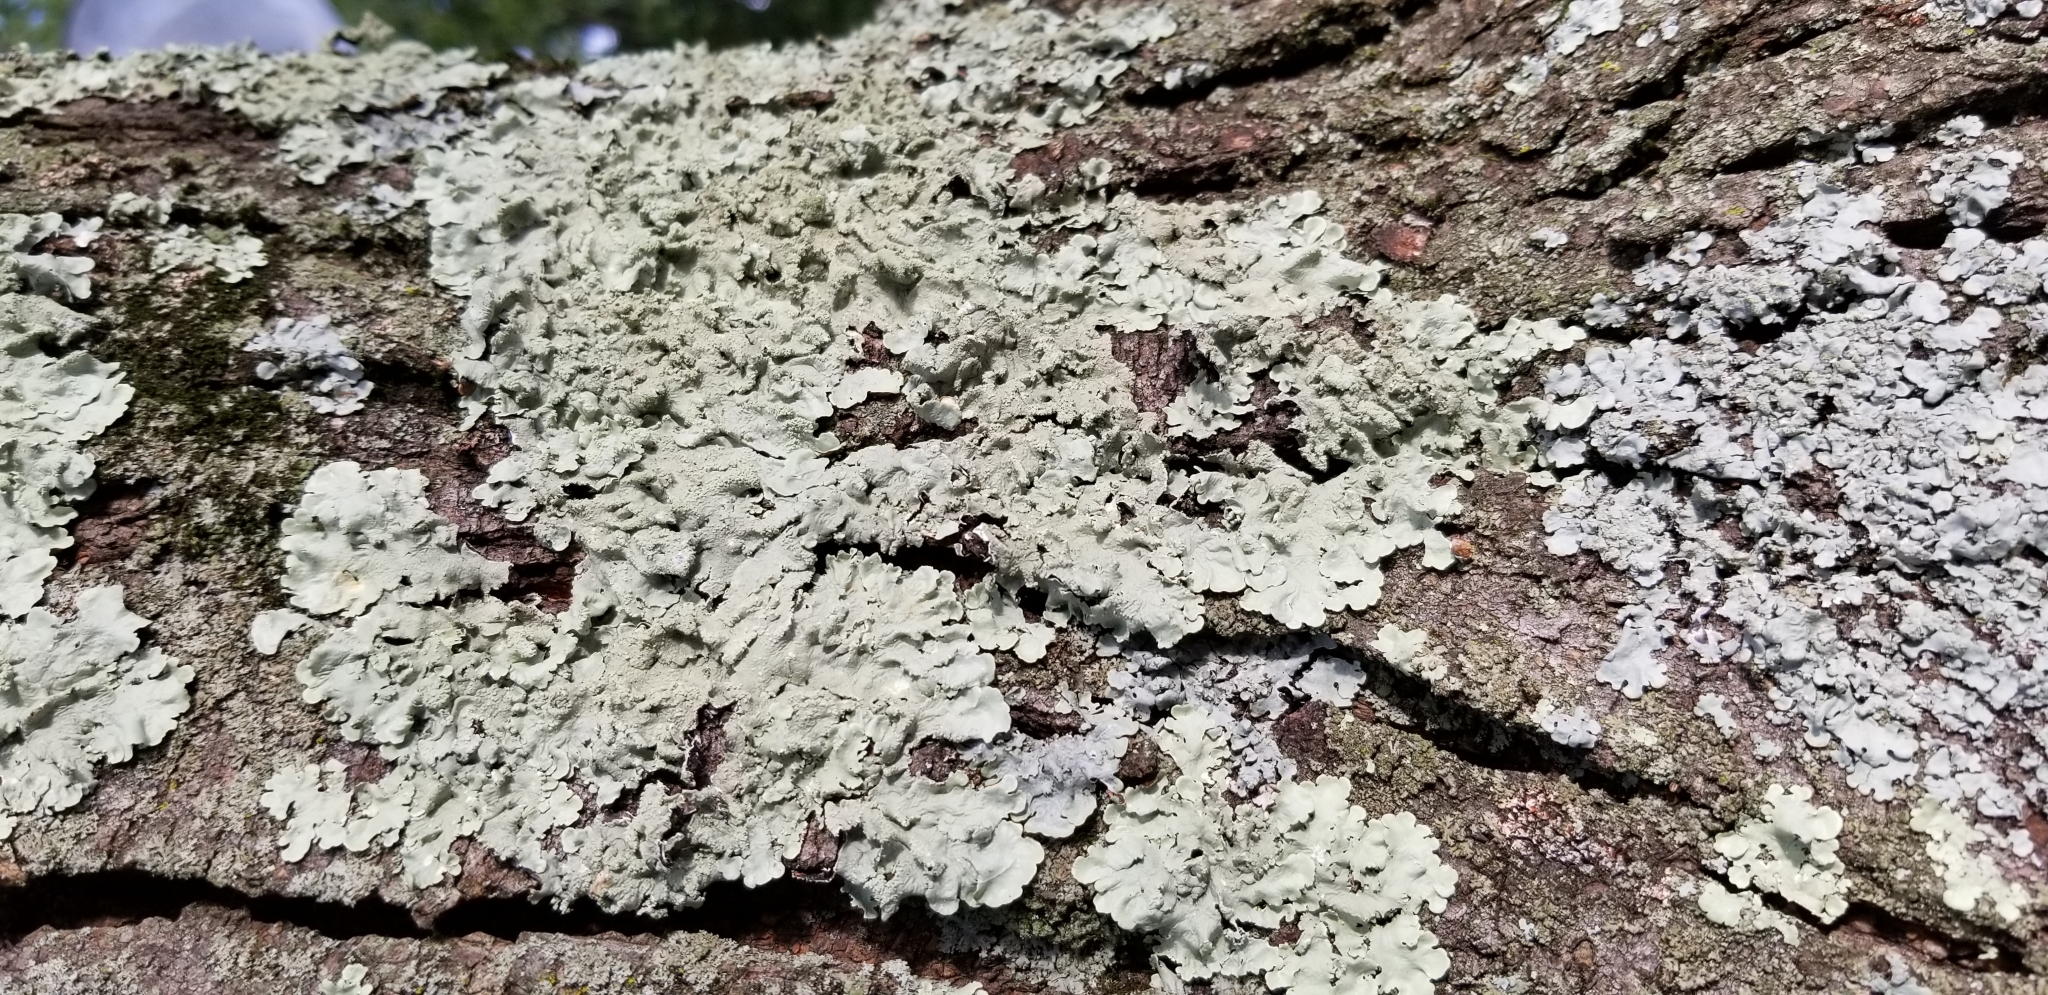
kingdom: Fungi
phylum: Ascomycota
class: Lecanoromycetes
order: Lecanorales
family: Parmeliaceae
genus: Flavoparmelia
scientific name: Flavoparmelia caperata
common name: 40-mile per hour lichen
